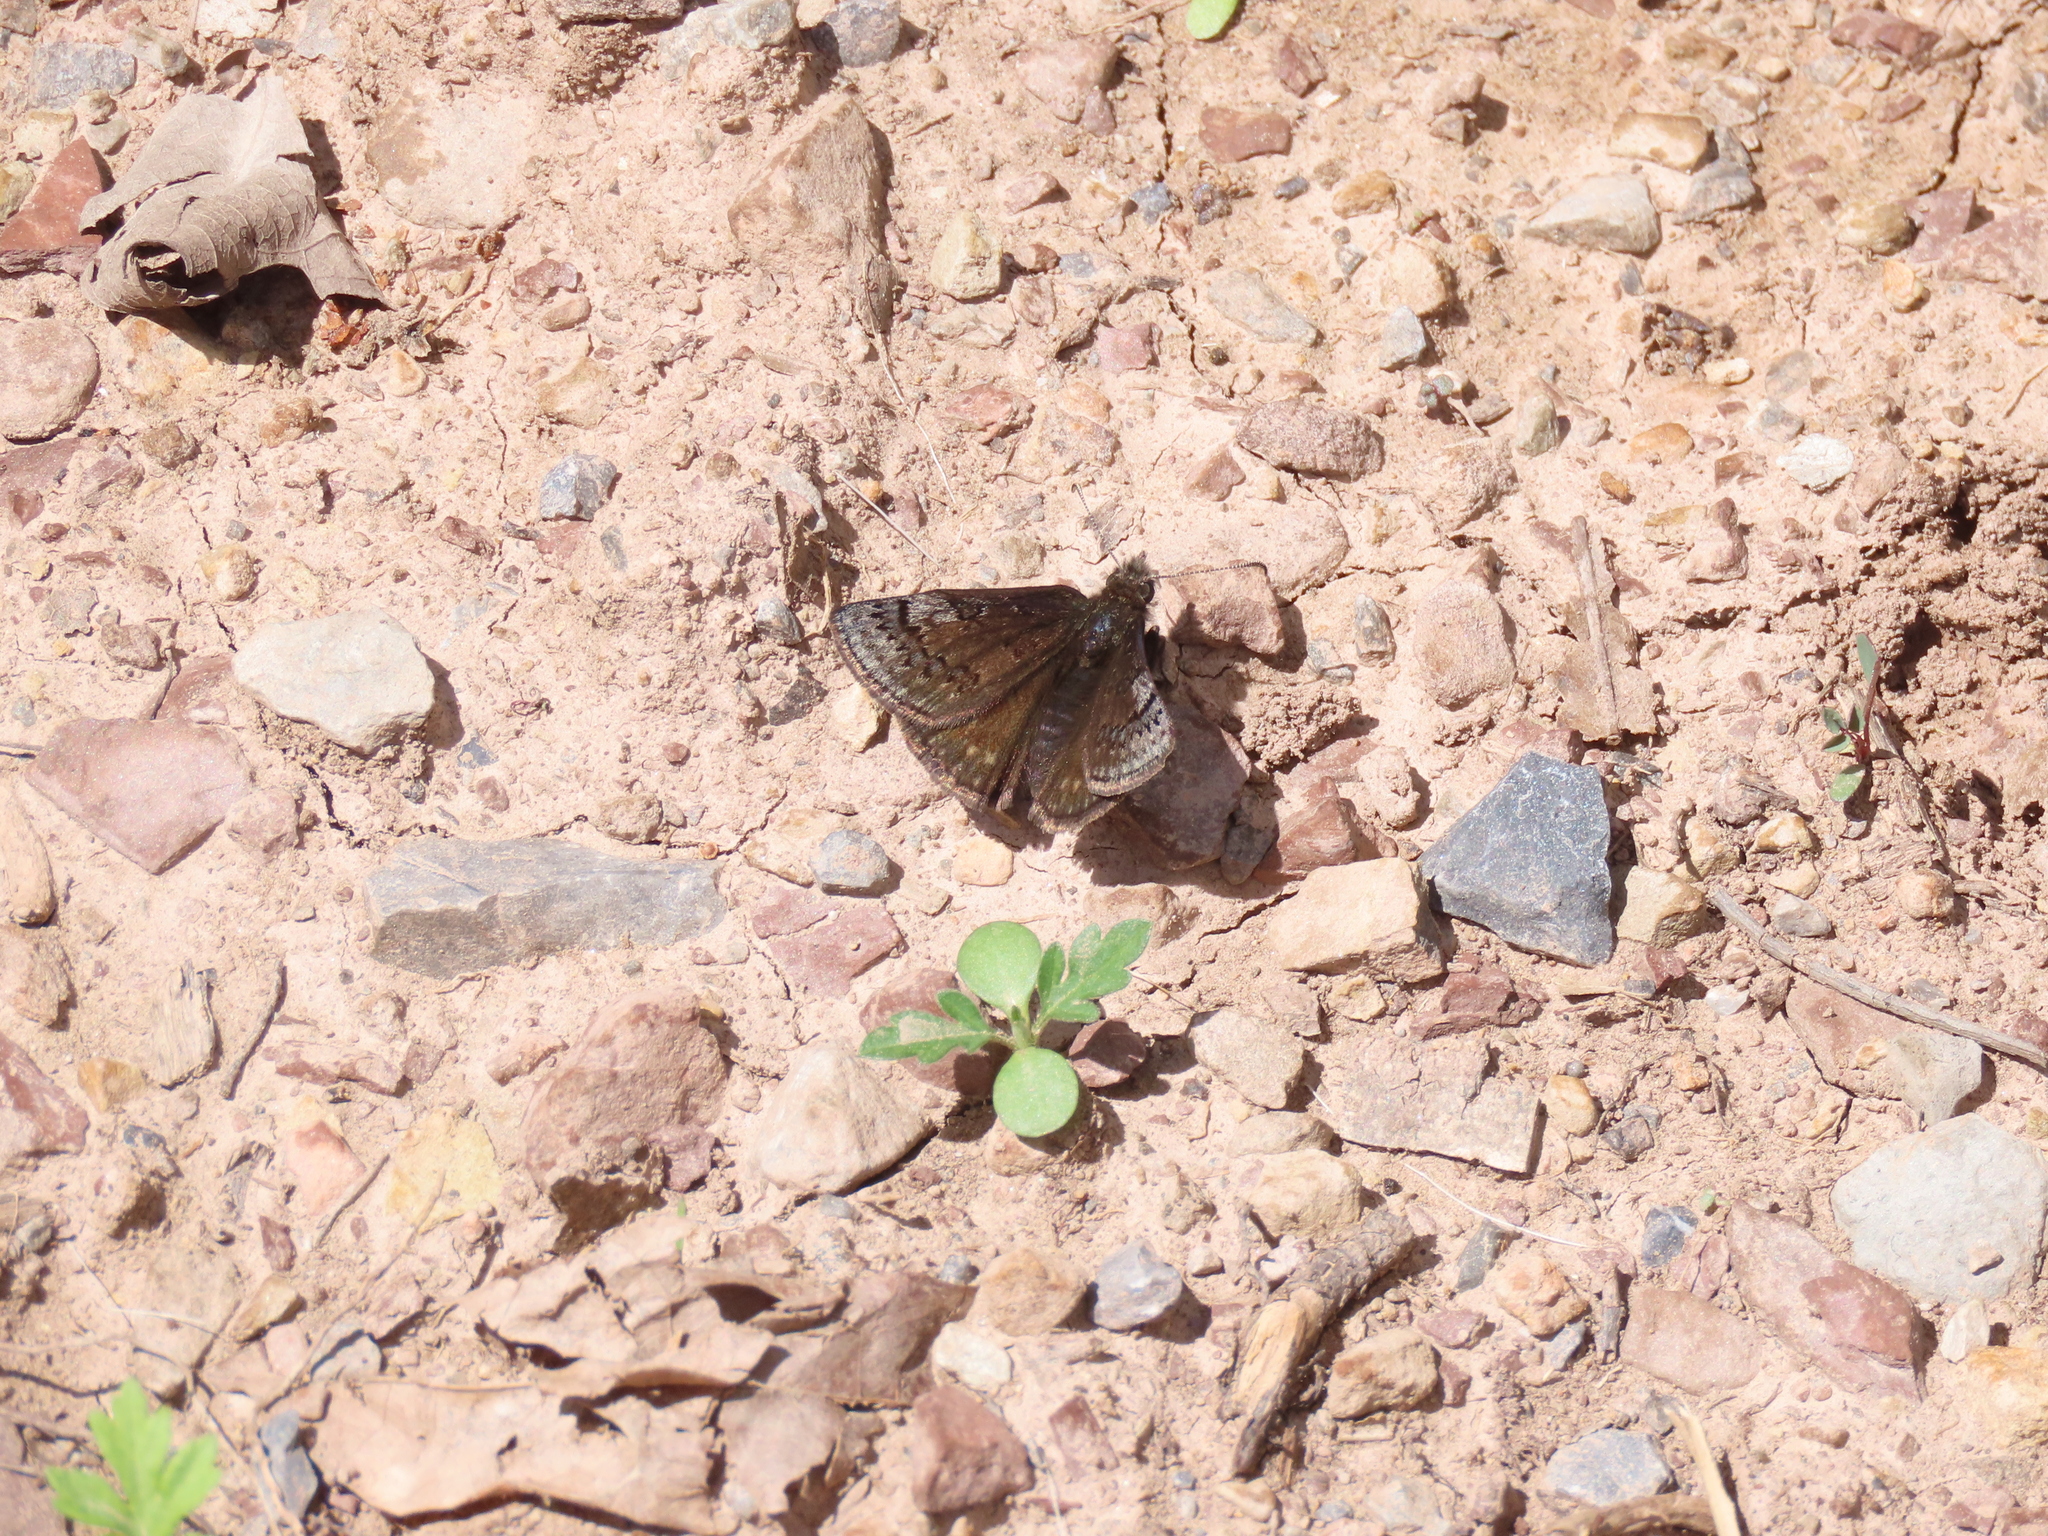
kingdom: Animalia
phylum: Arthropoda
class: Insecta
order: Lepidoptera
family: Hesperiidae
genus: Erynnis
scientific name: Erynnis brizo
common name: Sleepy duskywing
